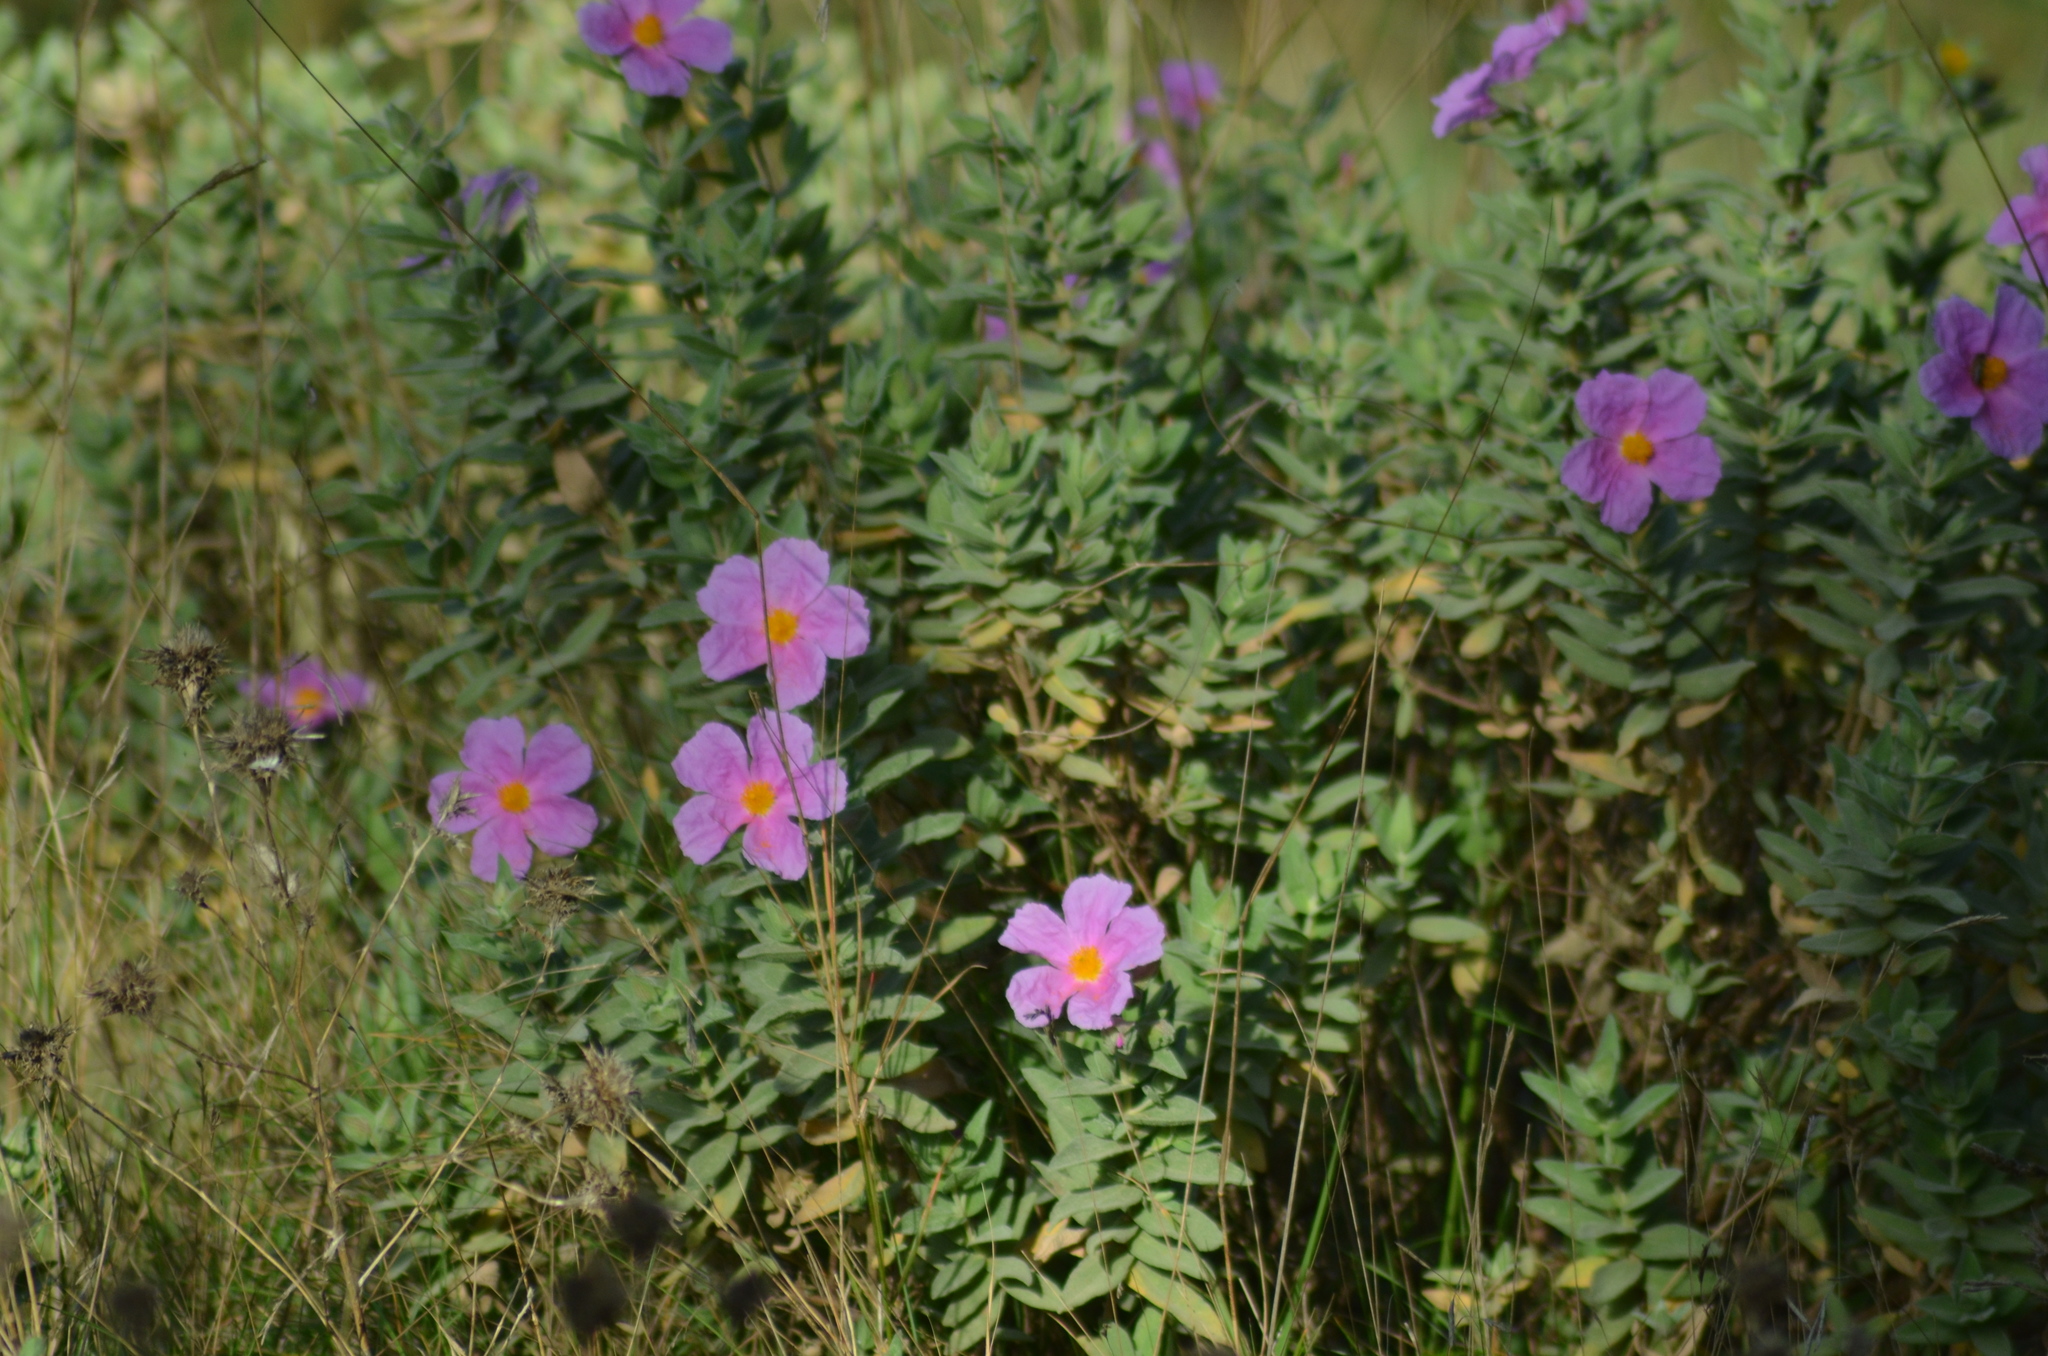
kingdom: Plantae
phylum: Tracheophyta
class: Magnoliopsida
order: Malvales
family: Cistaceae
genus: Cistus
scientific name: Cistus albidus
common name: White-leaf rock-rose
